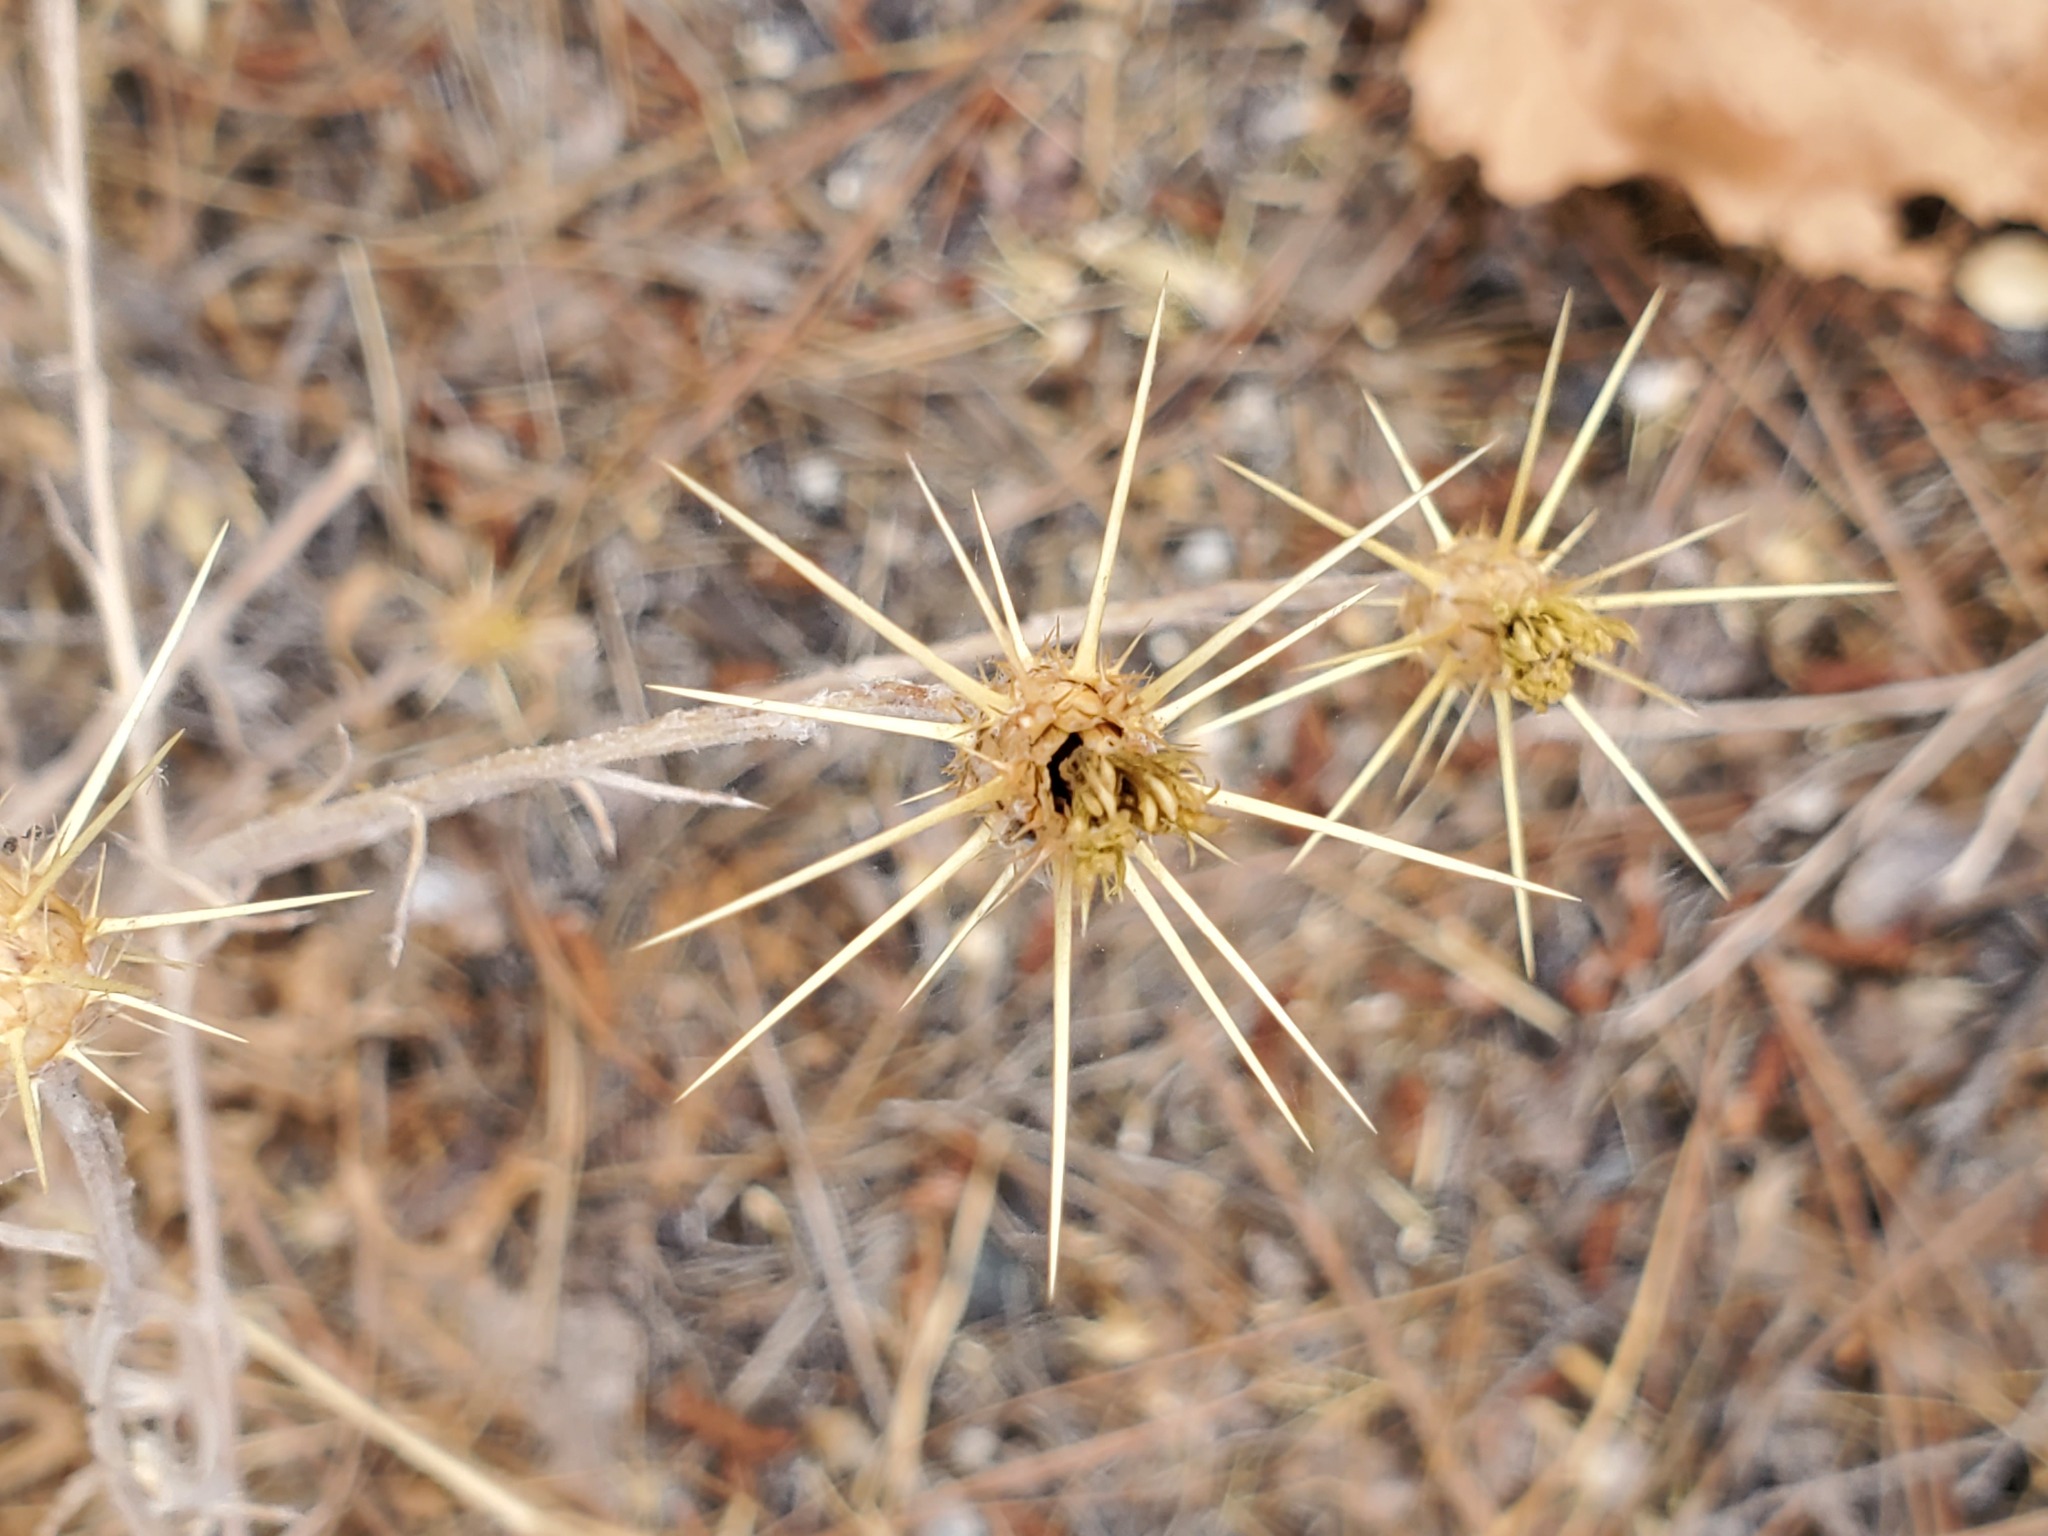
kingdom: Plantae
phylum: Tracheophyta
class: Magnoliopsida
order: Asterales
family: Asteraceae
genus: Centaurea
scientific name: Centaurea solstitialis
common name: Yellow star-thistle
